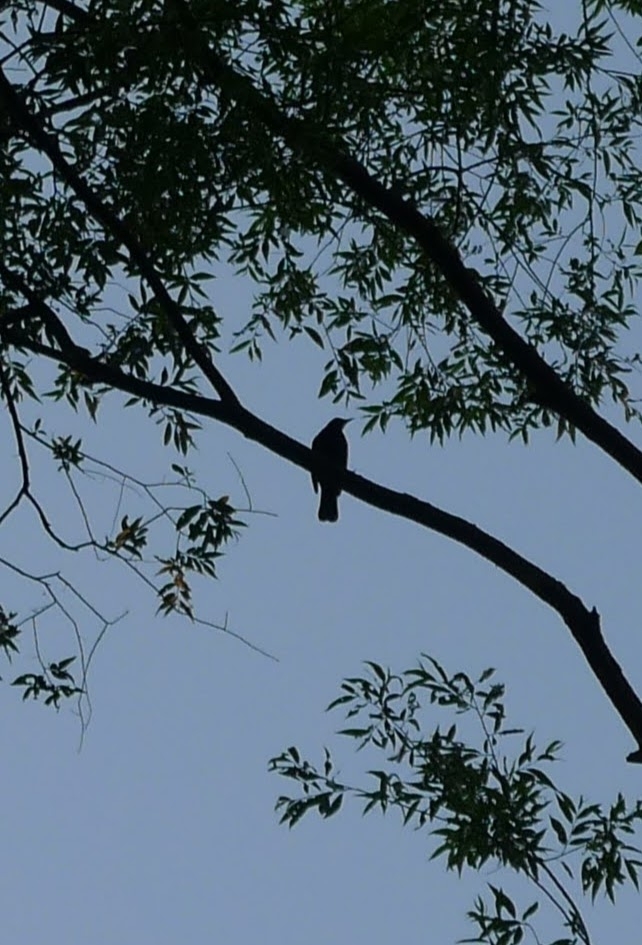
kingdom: Animalia
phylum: Chordata
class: Aves
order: Passeriformes
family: Turdidae
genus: Turdus
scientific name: Turdus merula
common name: Common blackbird
